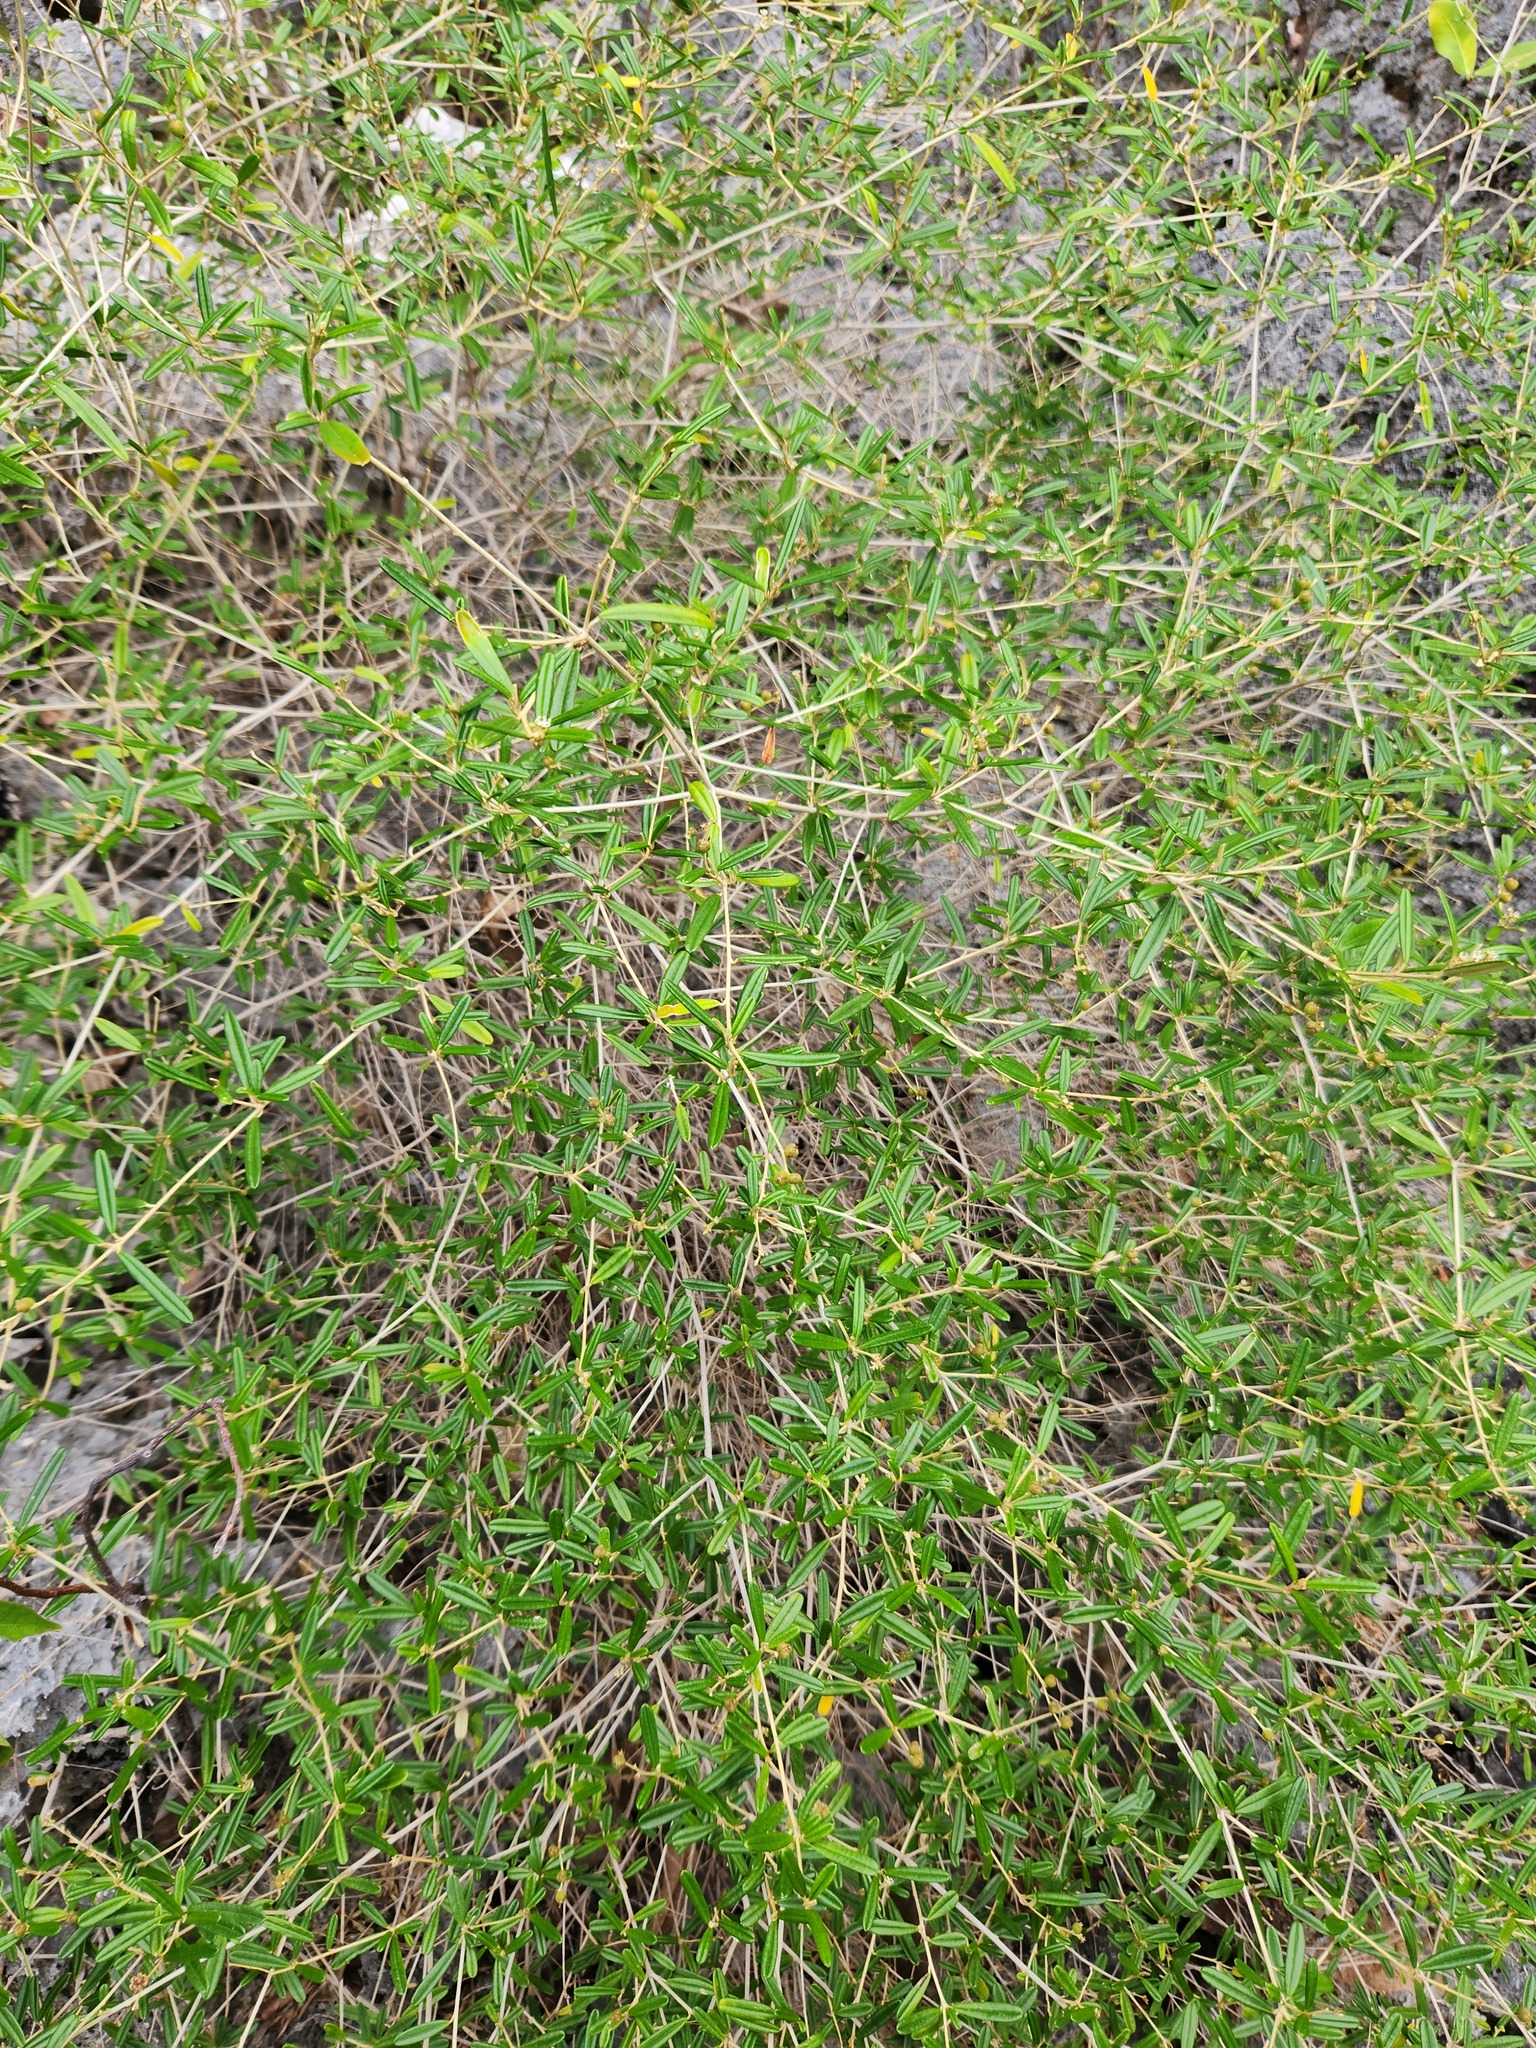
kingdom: Plantae
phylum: Tracheophyta
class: Magnoliopsida
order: Malpighiales
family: Euphorbiaceae
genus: Croton
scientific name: Croton linearis
